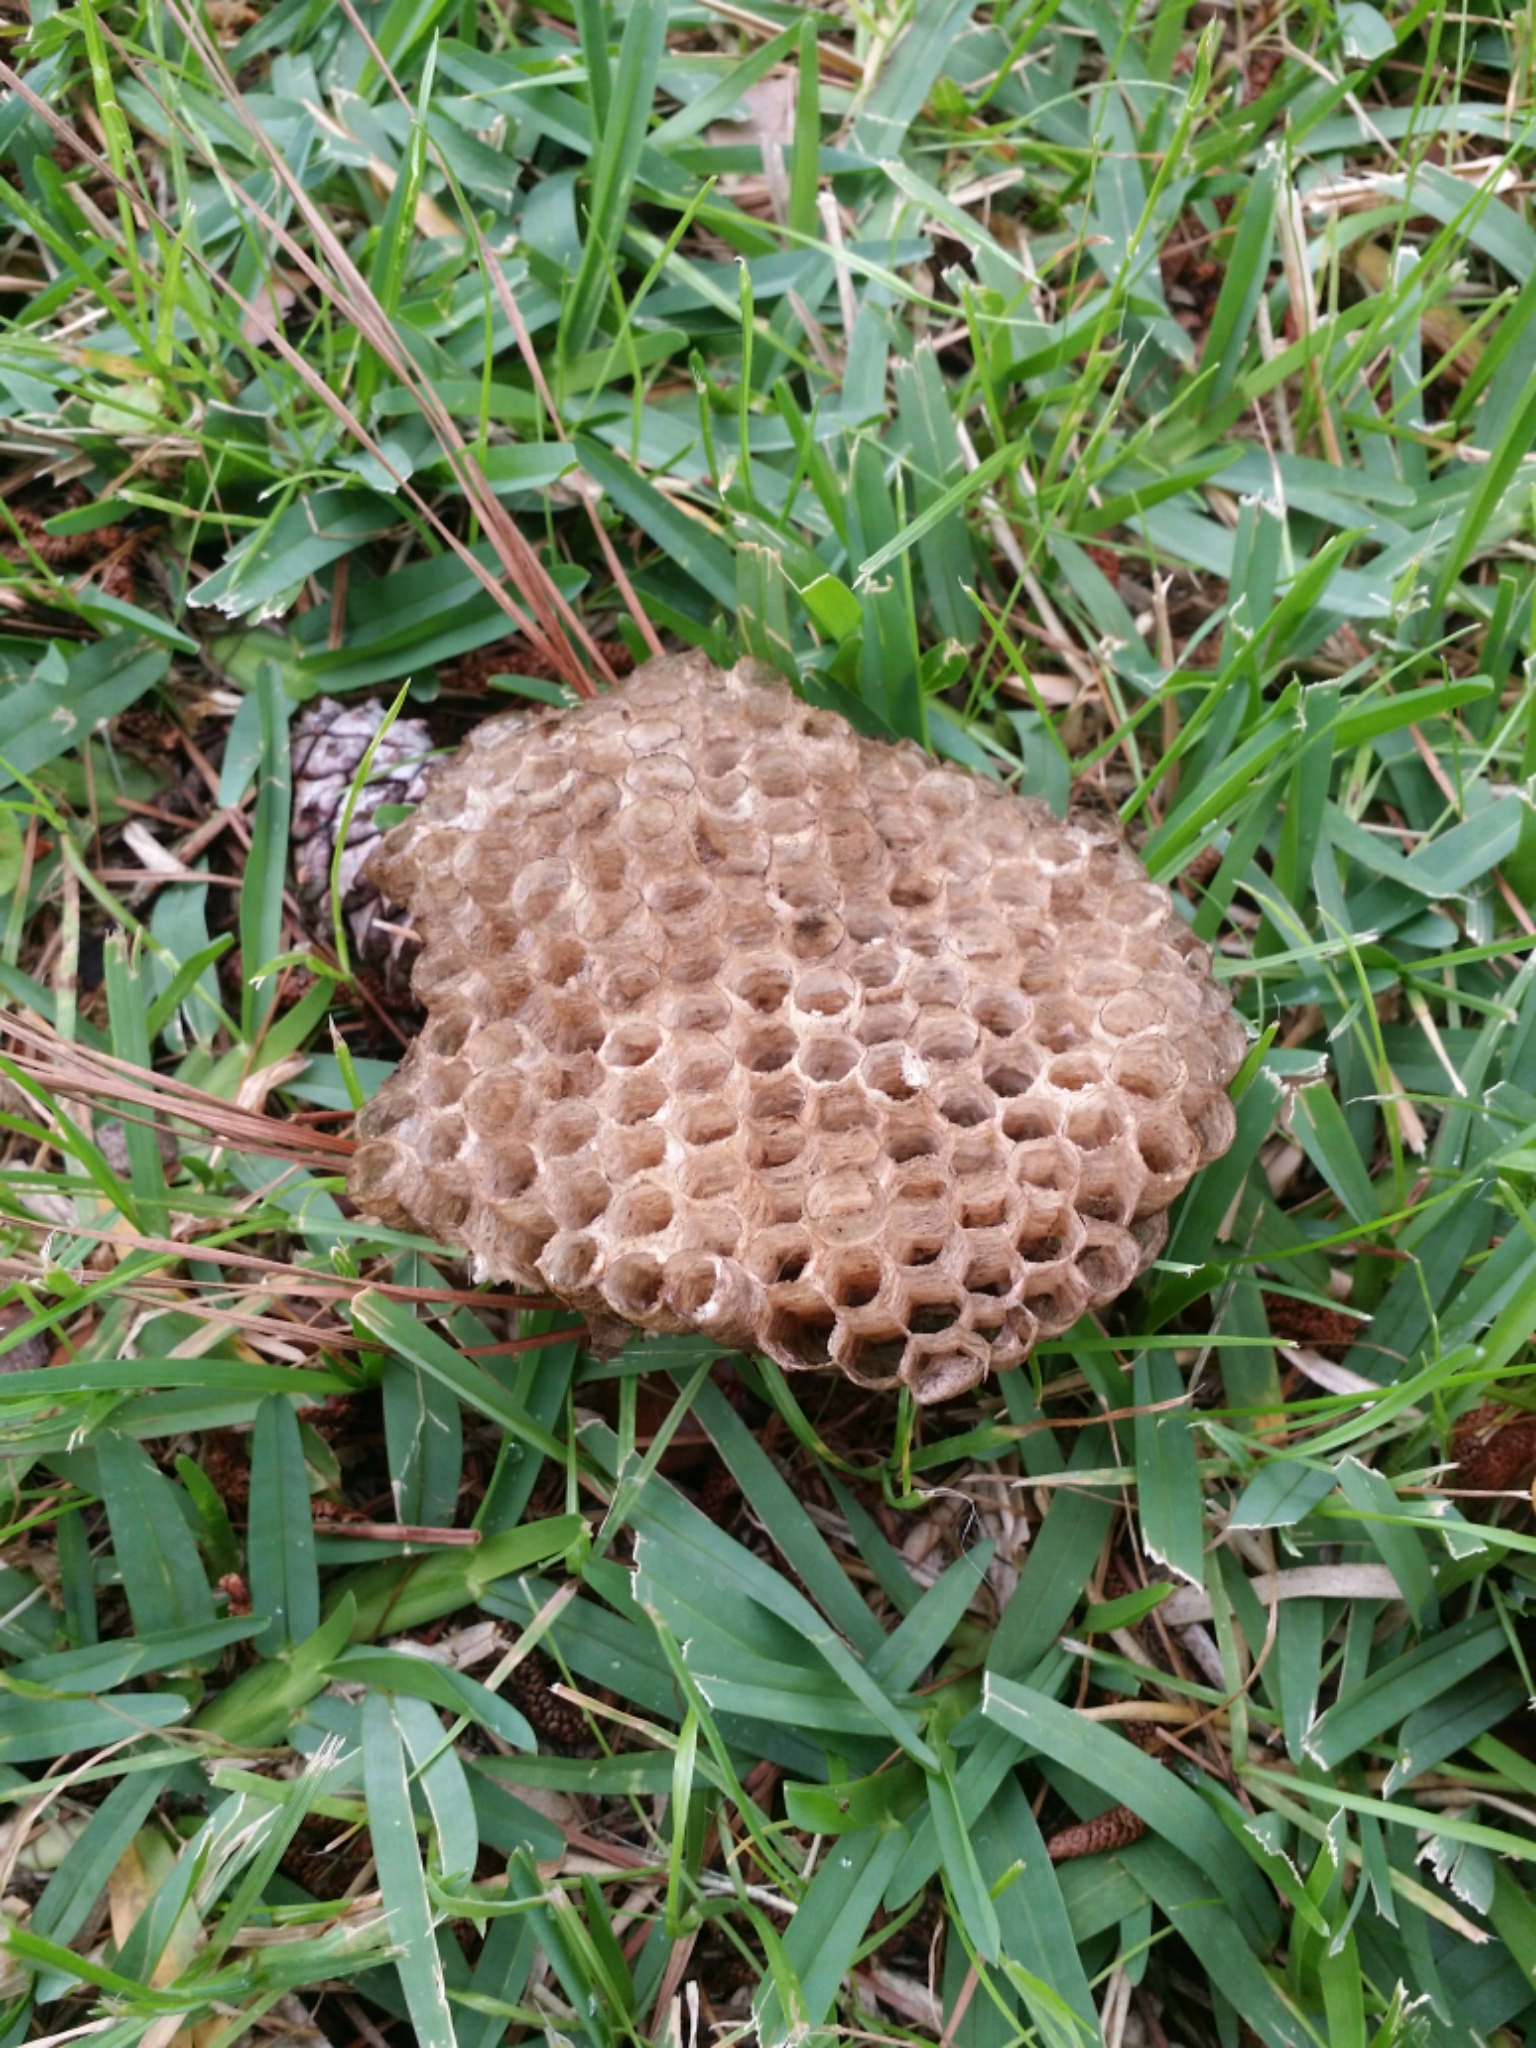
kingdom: Animalia
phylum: Arthropoda
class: Insecta
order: Hymenoptera
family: Vespidae
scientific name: Vespidae
